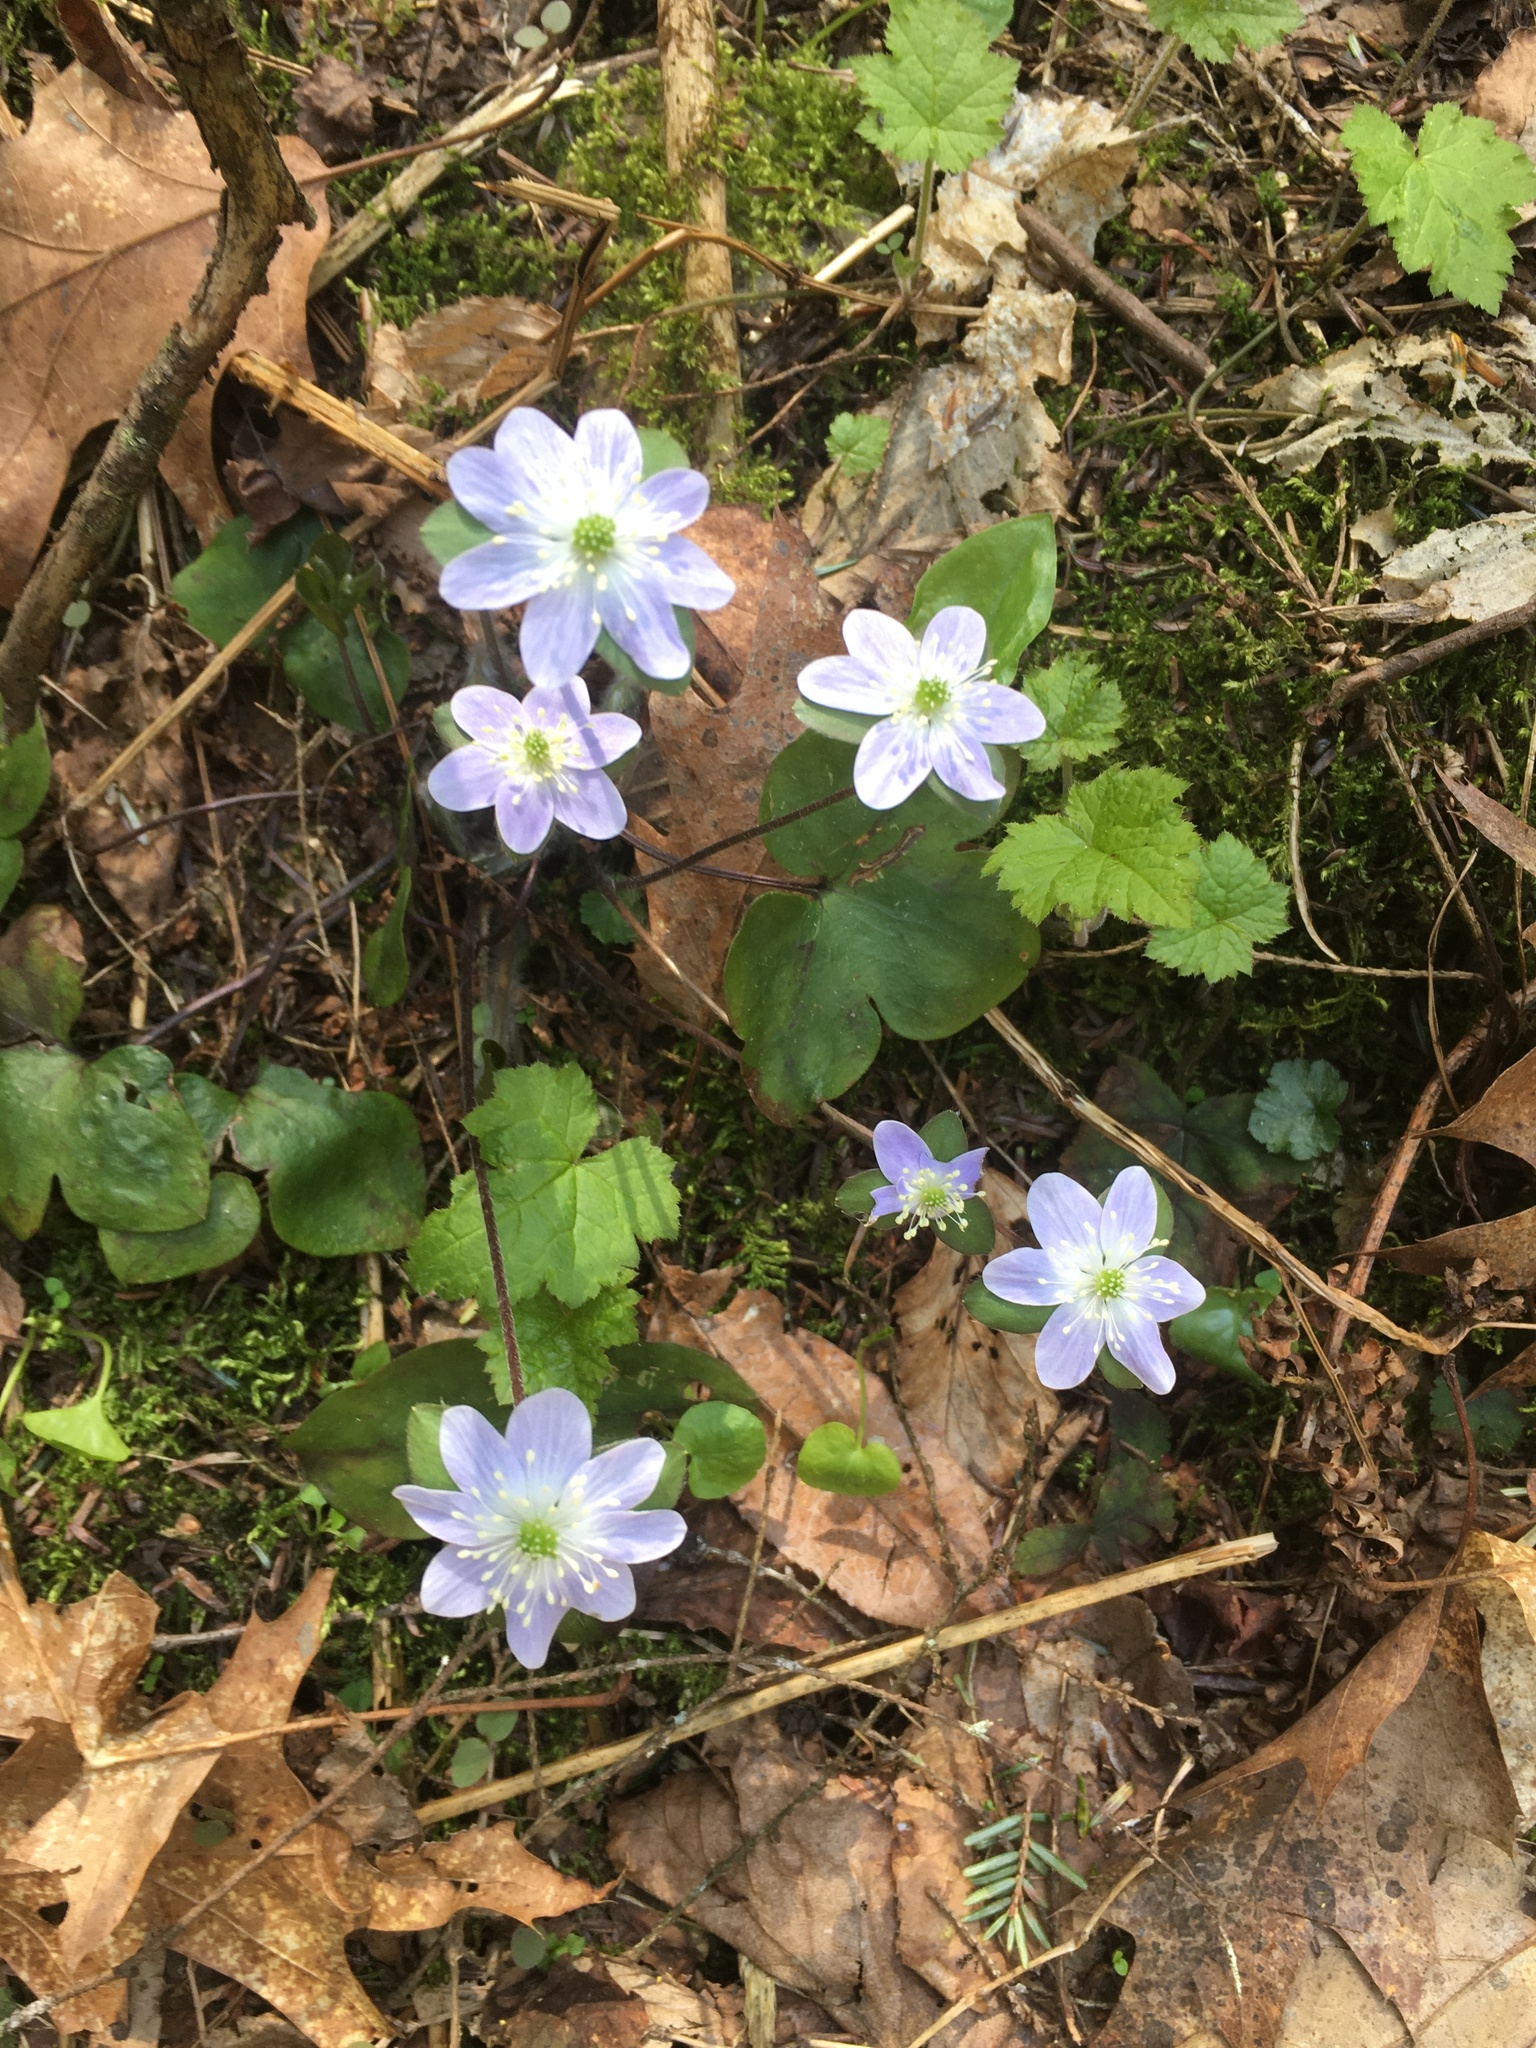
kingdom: Plantae
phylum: Tracheophyta
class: Magnoliopsida
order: Ranunculales
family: Ranunculaceae
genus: Hepatica
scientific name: Hepatica americana
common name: American hepatica
